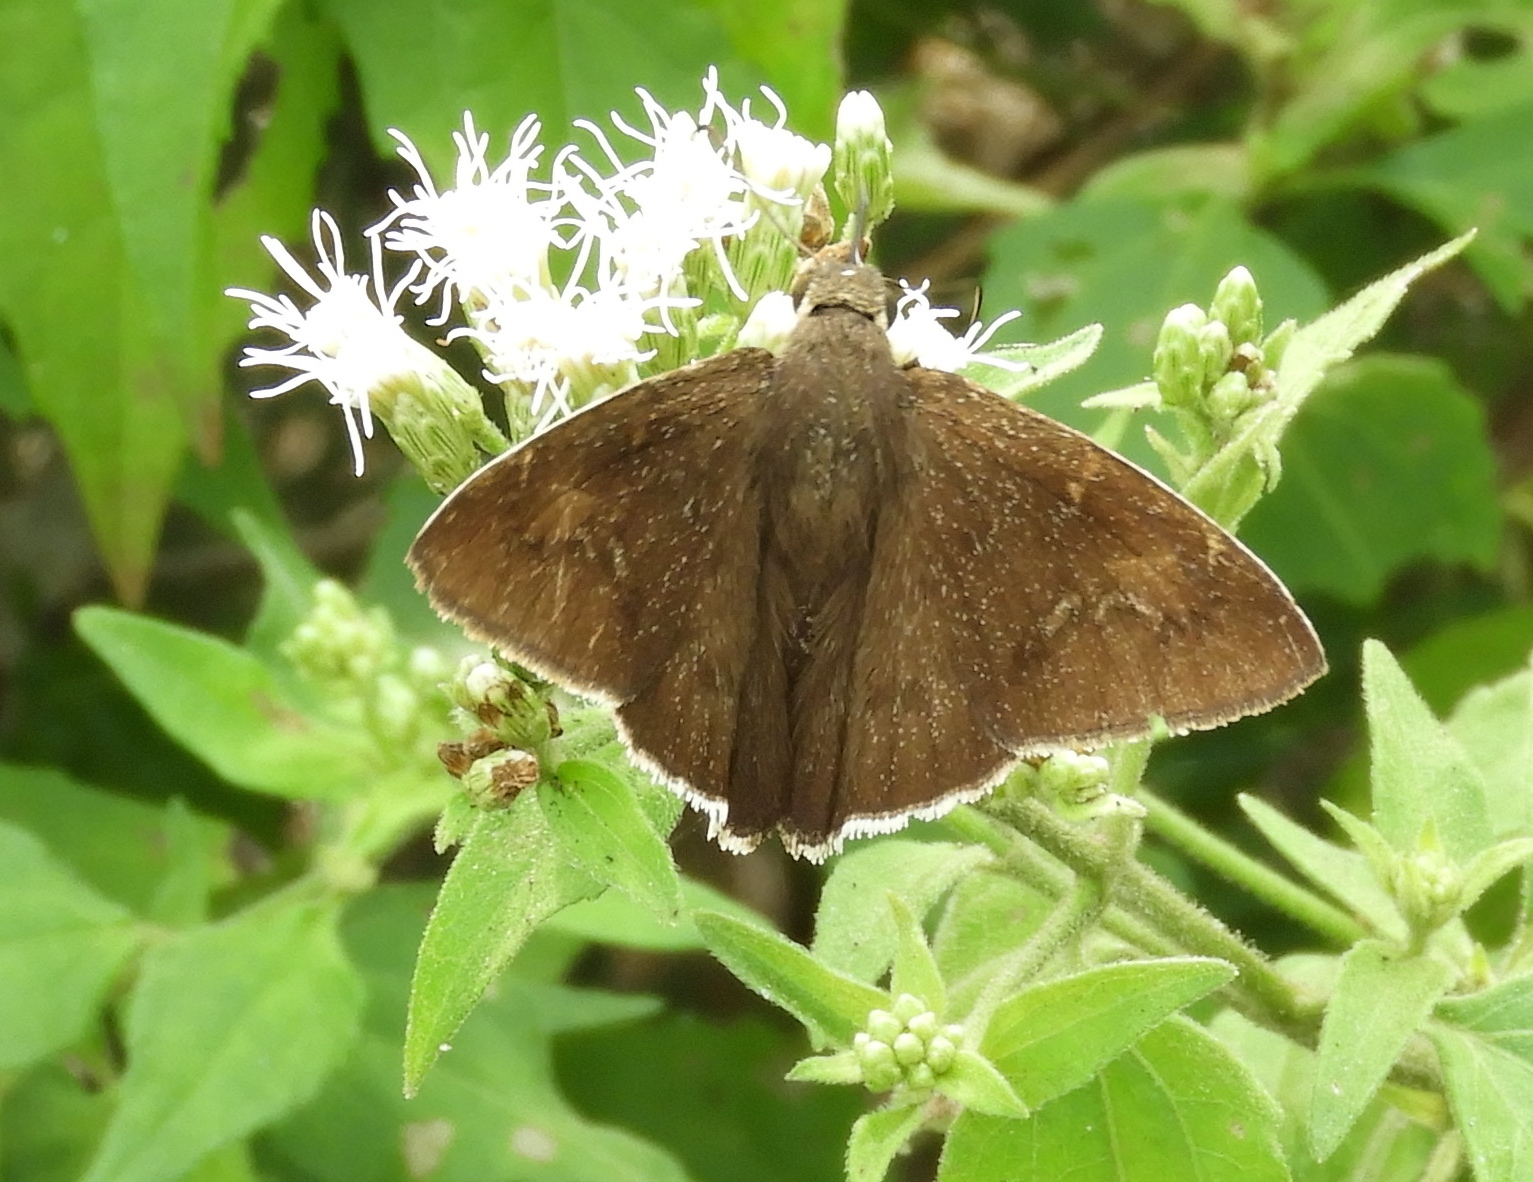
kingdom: Animalia
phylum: Arthropoda
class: Insecta
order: Lepidoptera
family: Hesperiidae
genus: Achalarus
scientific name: Achalarus Murgaria albociliatus
